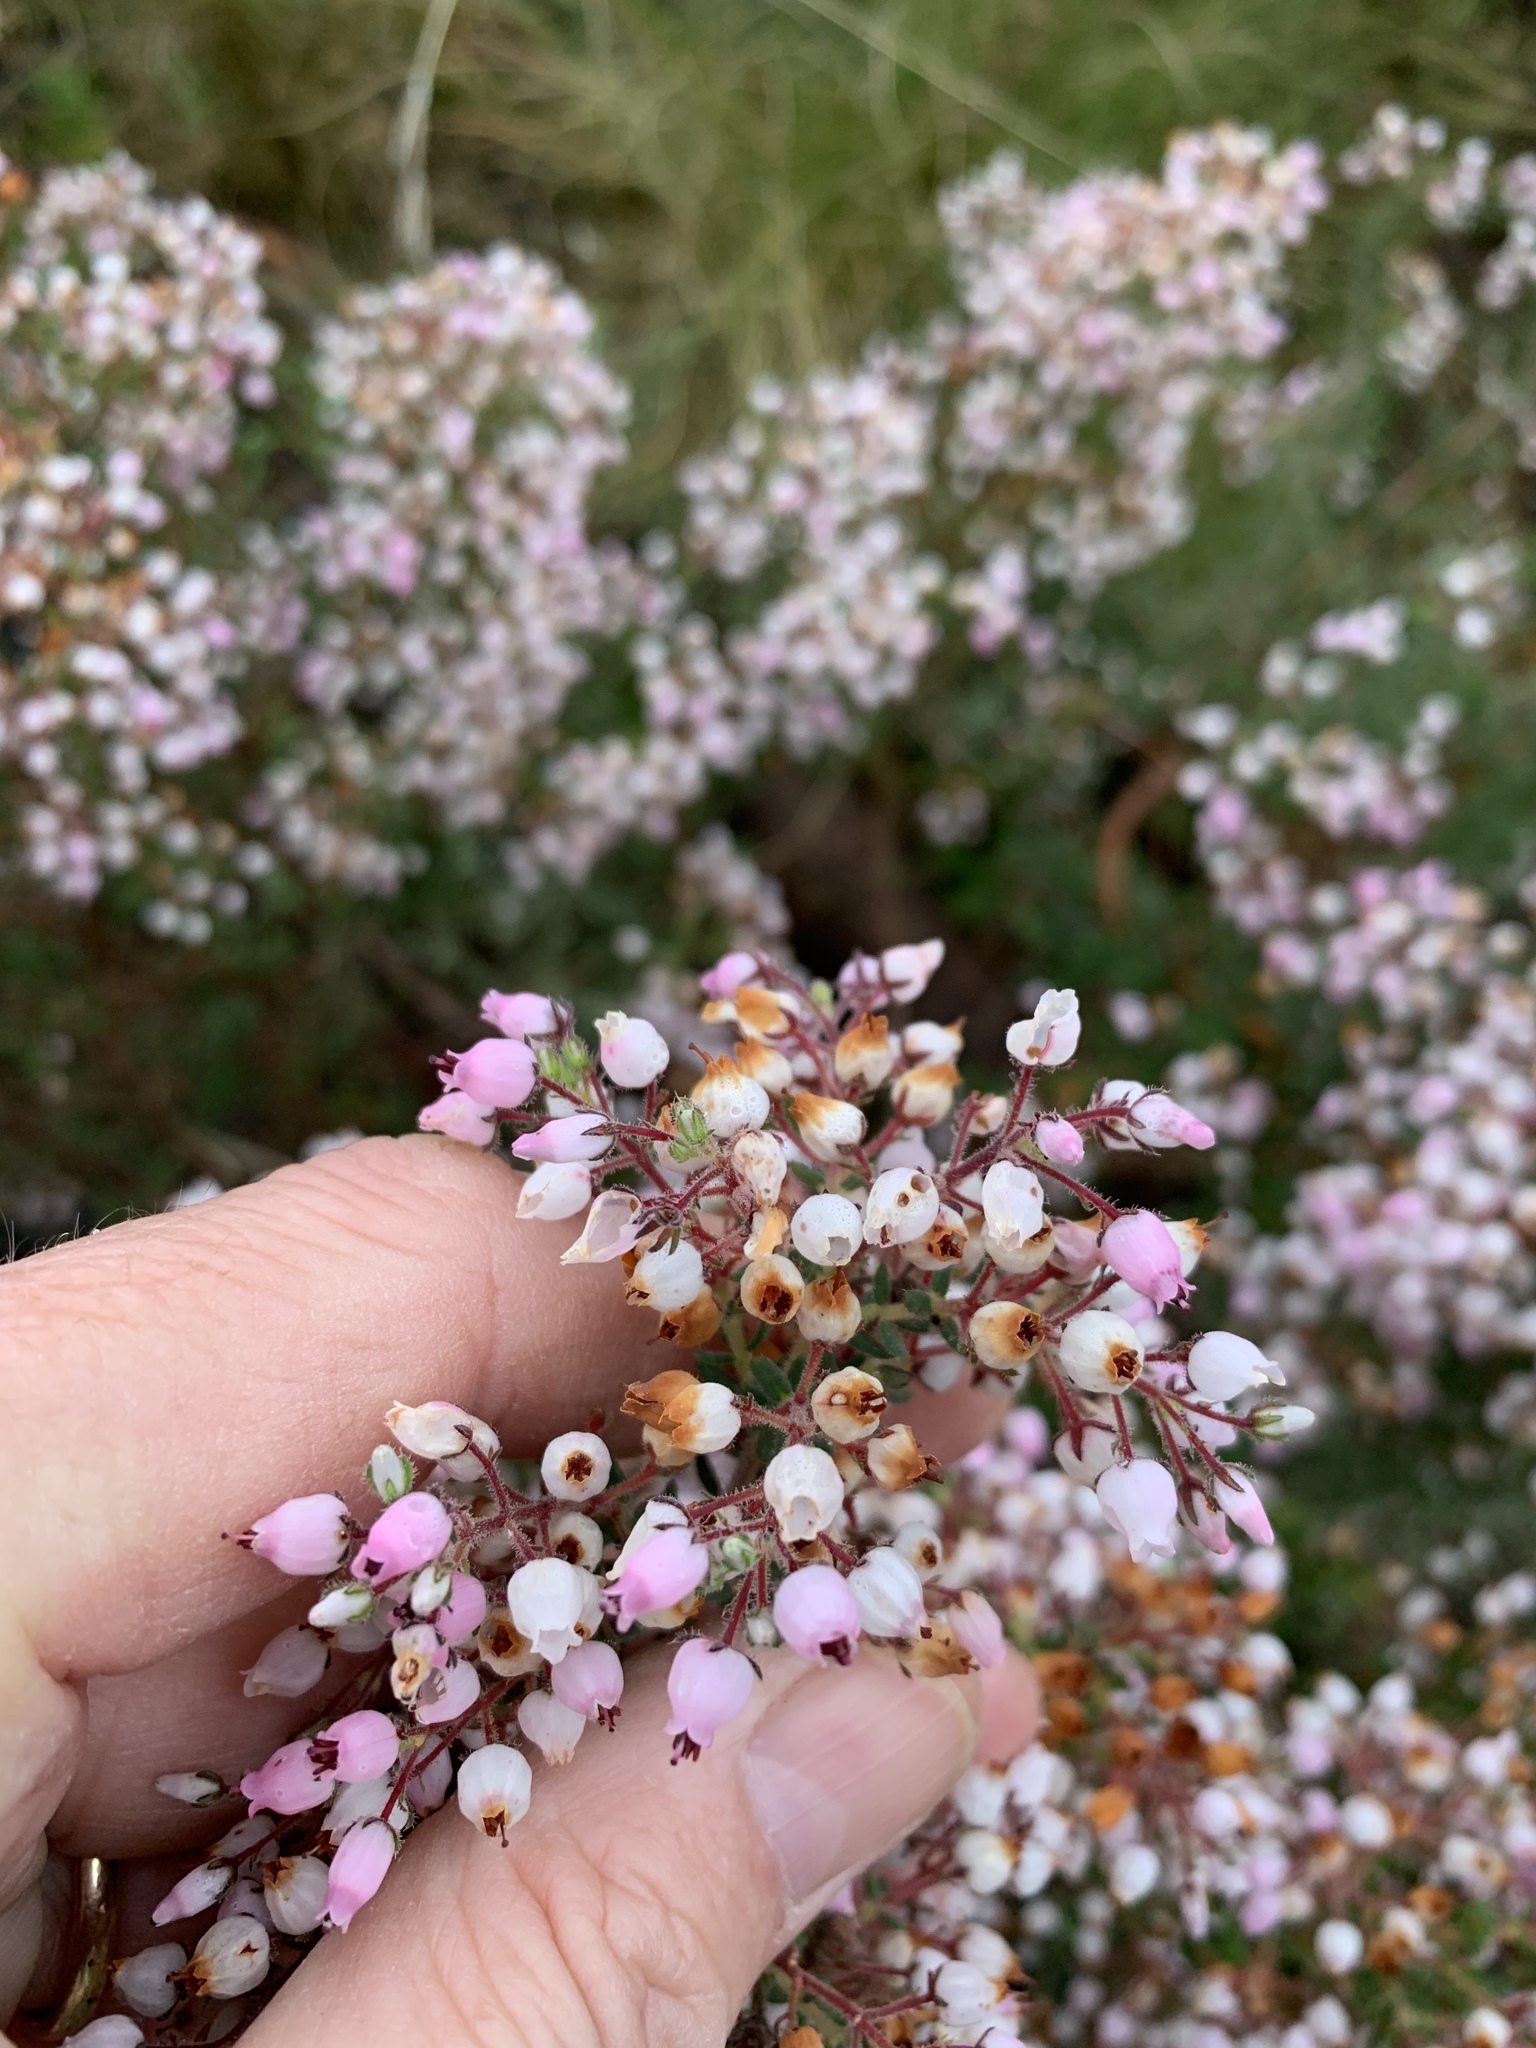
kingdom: Plantae
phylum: Tracheophyta
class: Magnoliopsida
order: Ericales
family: Ericaceae
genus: Erica
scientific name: Erica hirta
